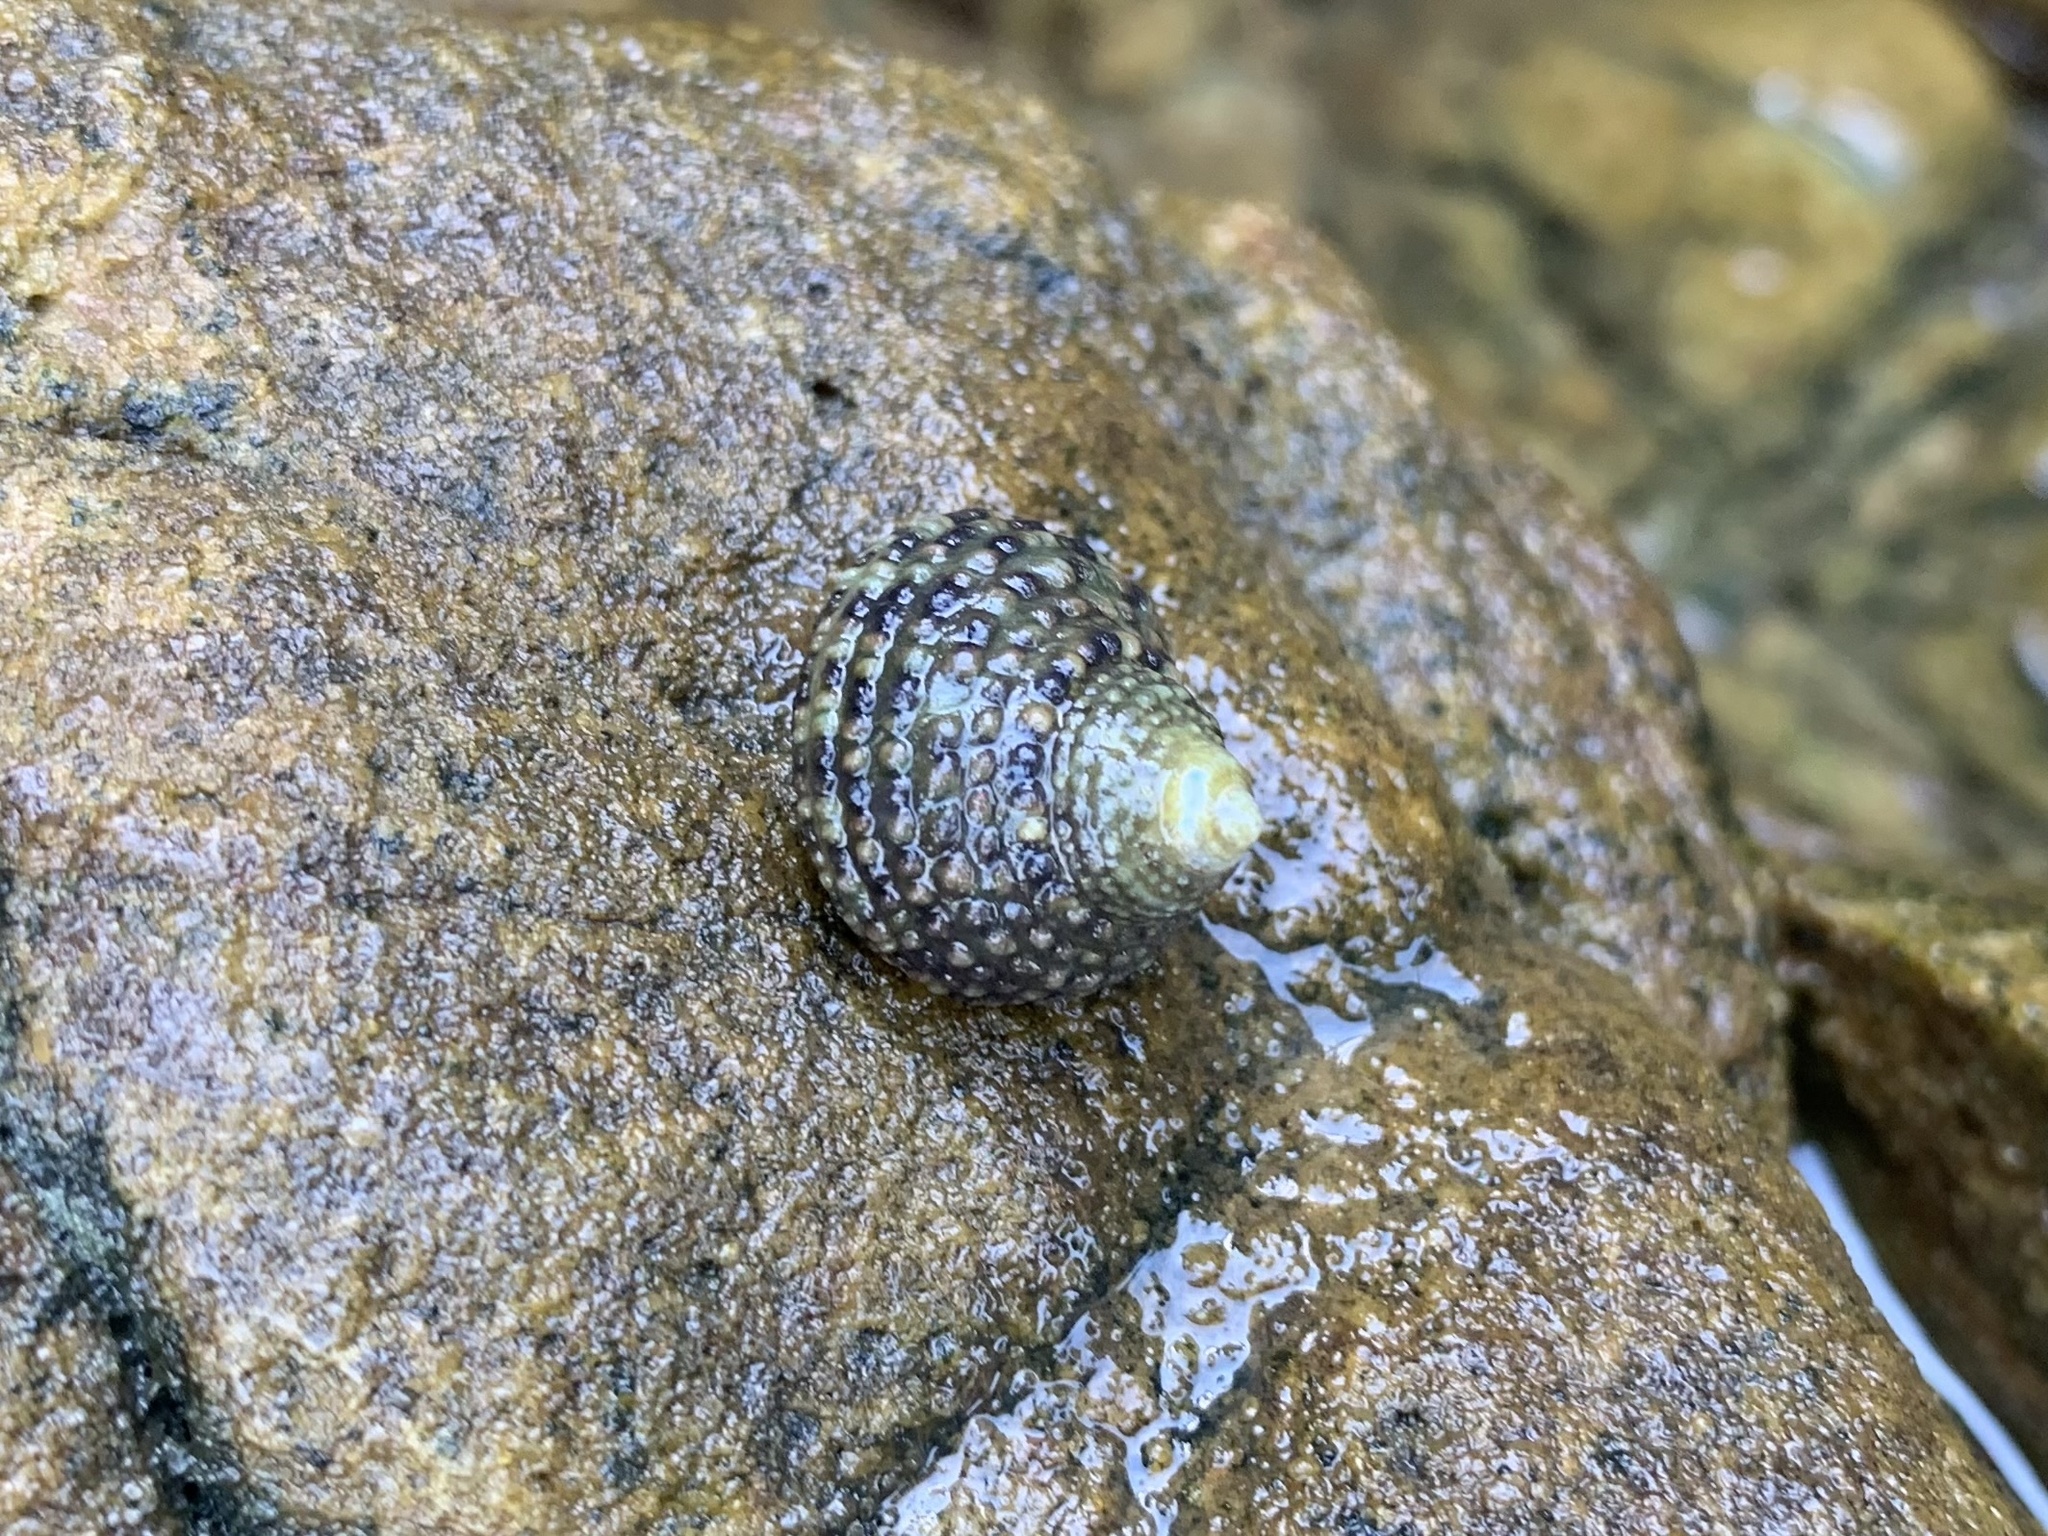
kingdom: Animalia
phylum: Mollusca
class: Gastropoda
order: Trochida
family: Trochidae
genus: Monodonta
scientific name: Monodonta labio
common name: Labio
